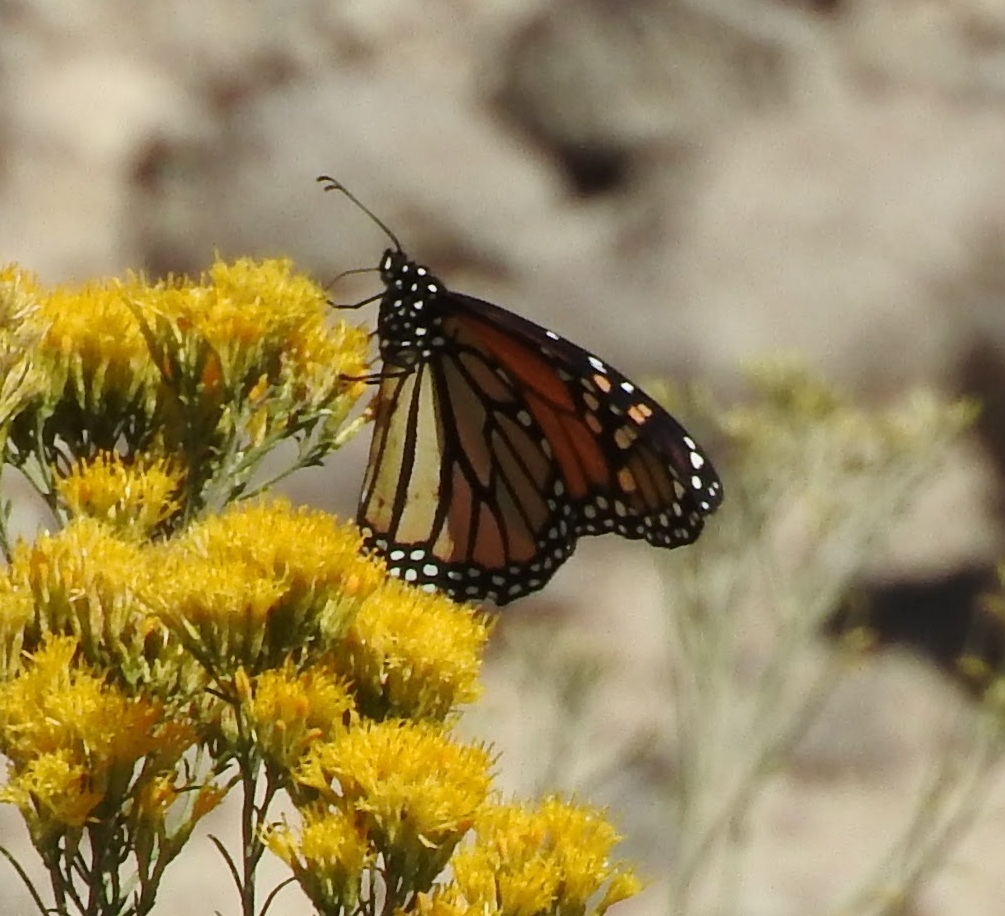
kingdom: Animalia
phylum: Arthropoda
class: Insecta
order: Lepidoptera
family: Nymphalidae
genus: Danaus
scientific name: Danaus plexippus
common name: Monarch
